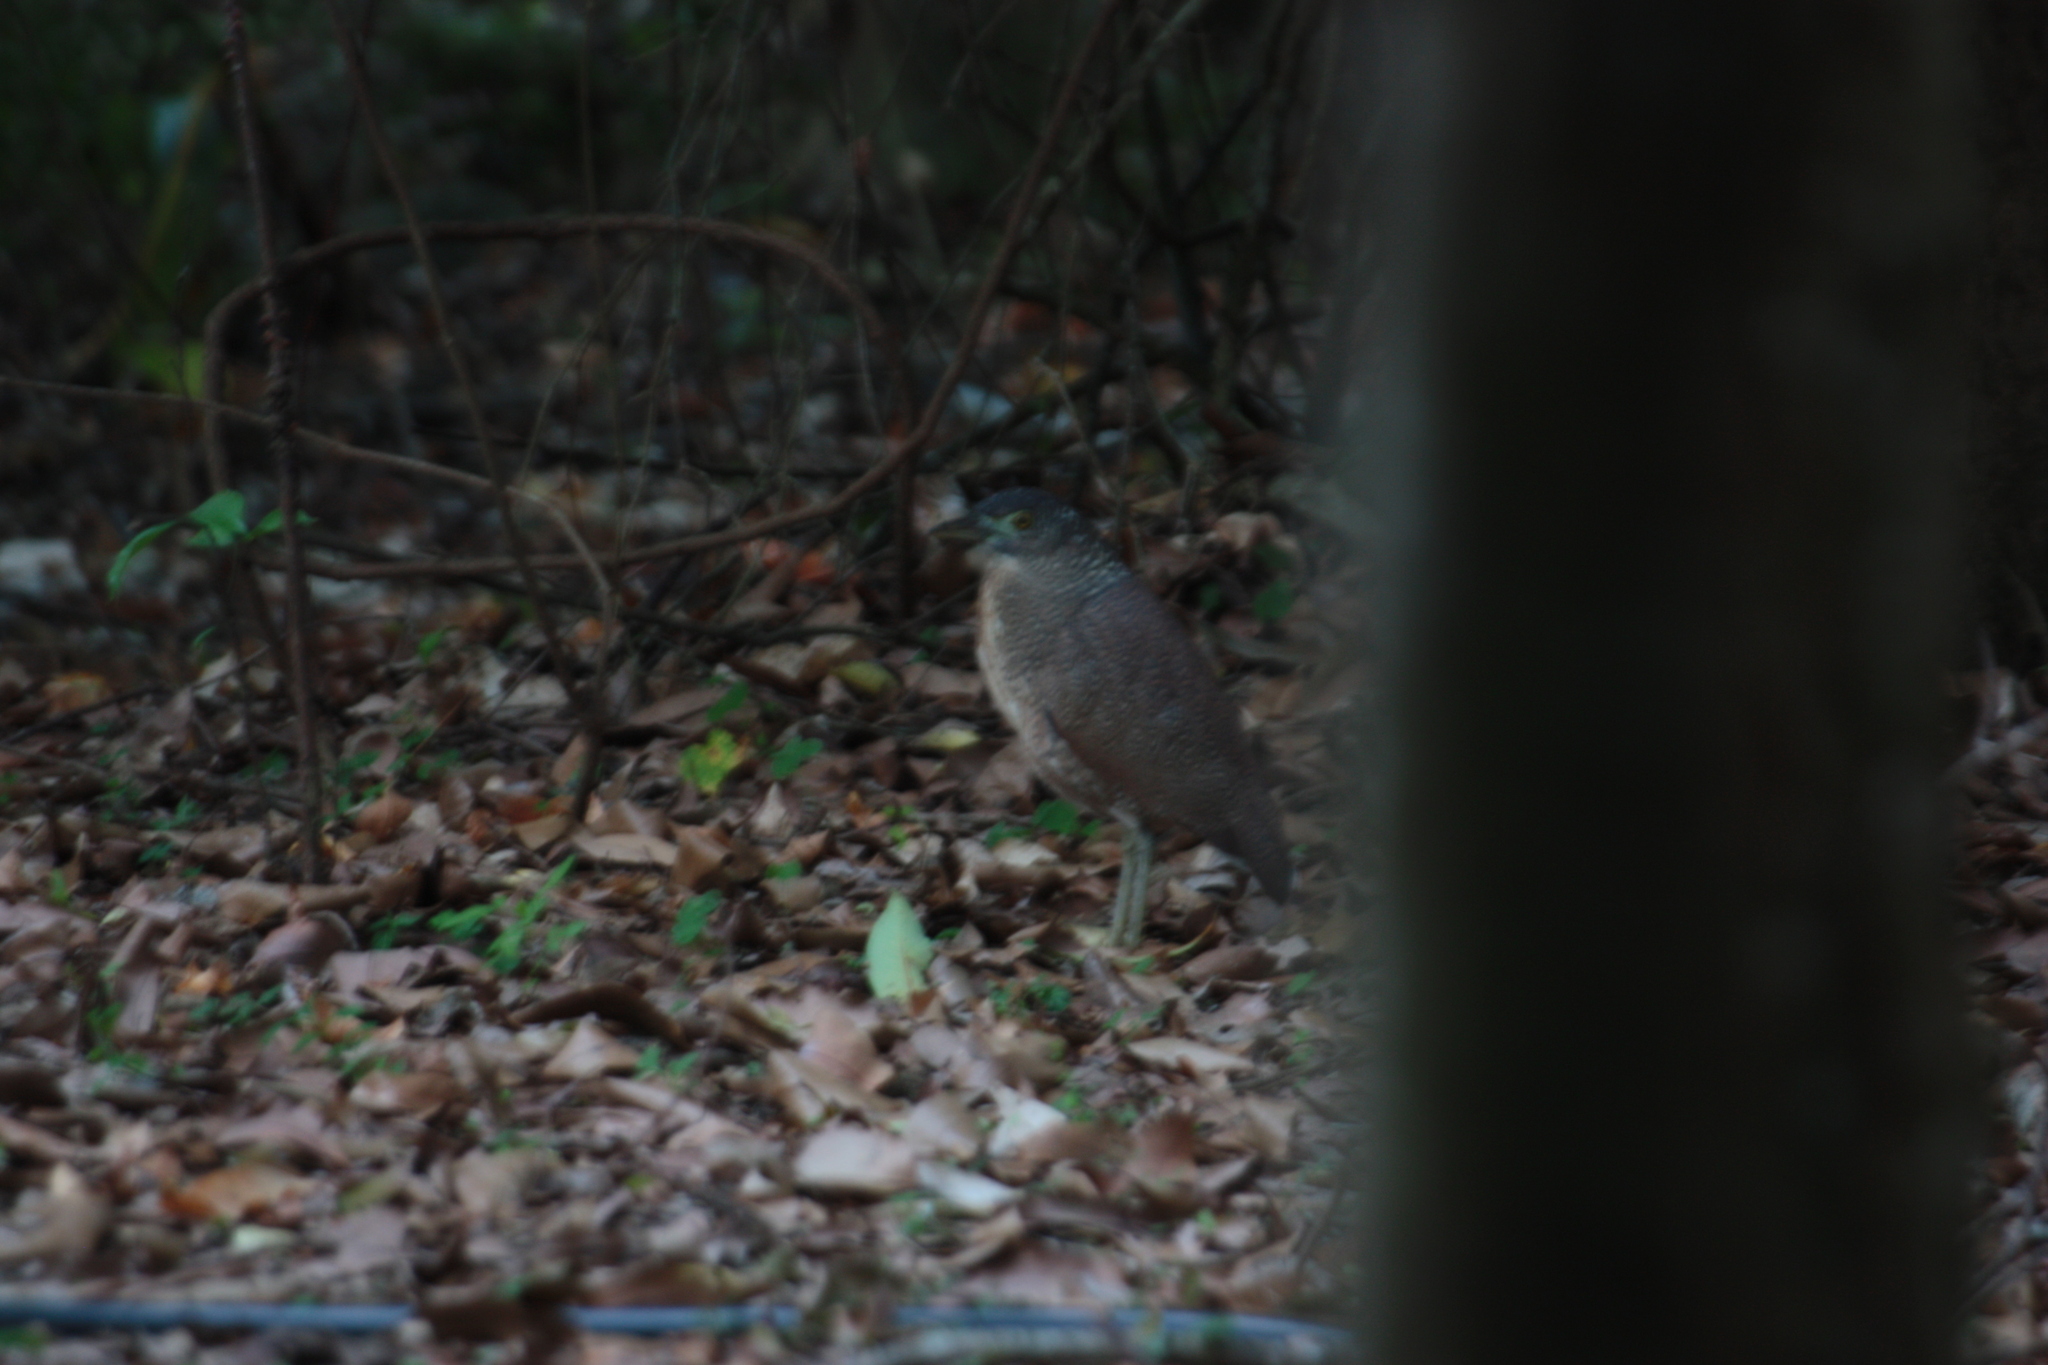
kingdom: Animalia
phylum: Chordata
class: Aves
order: Pelecaniformes
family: Ardeidae
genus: Gorsachius
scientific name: Gorsachius melanolophus
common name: Malayan night heron
